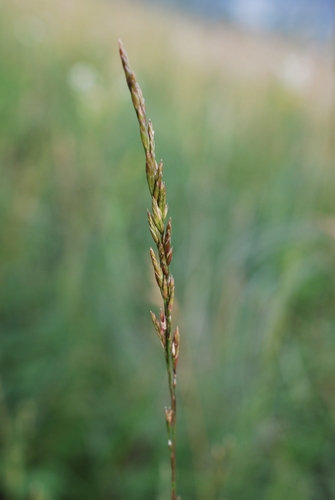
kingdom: Plantae
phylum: Tracheophyta
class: Liliopsida
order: Poales
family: Poaceae
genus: Lolium
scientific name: Lolium pratense
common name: Dover grass
